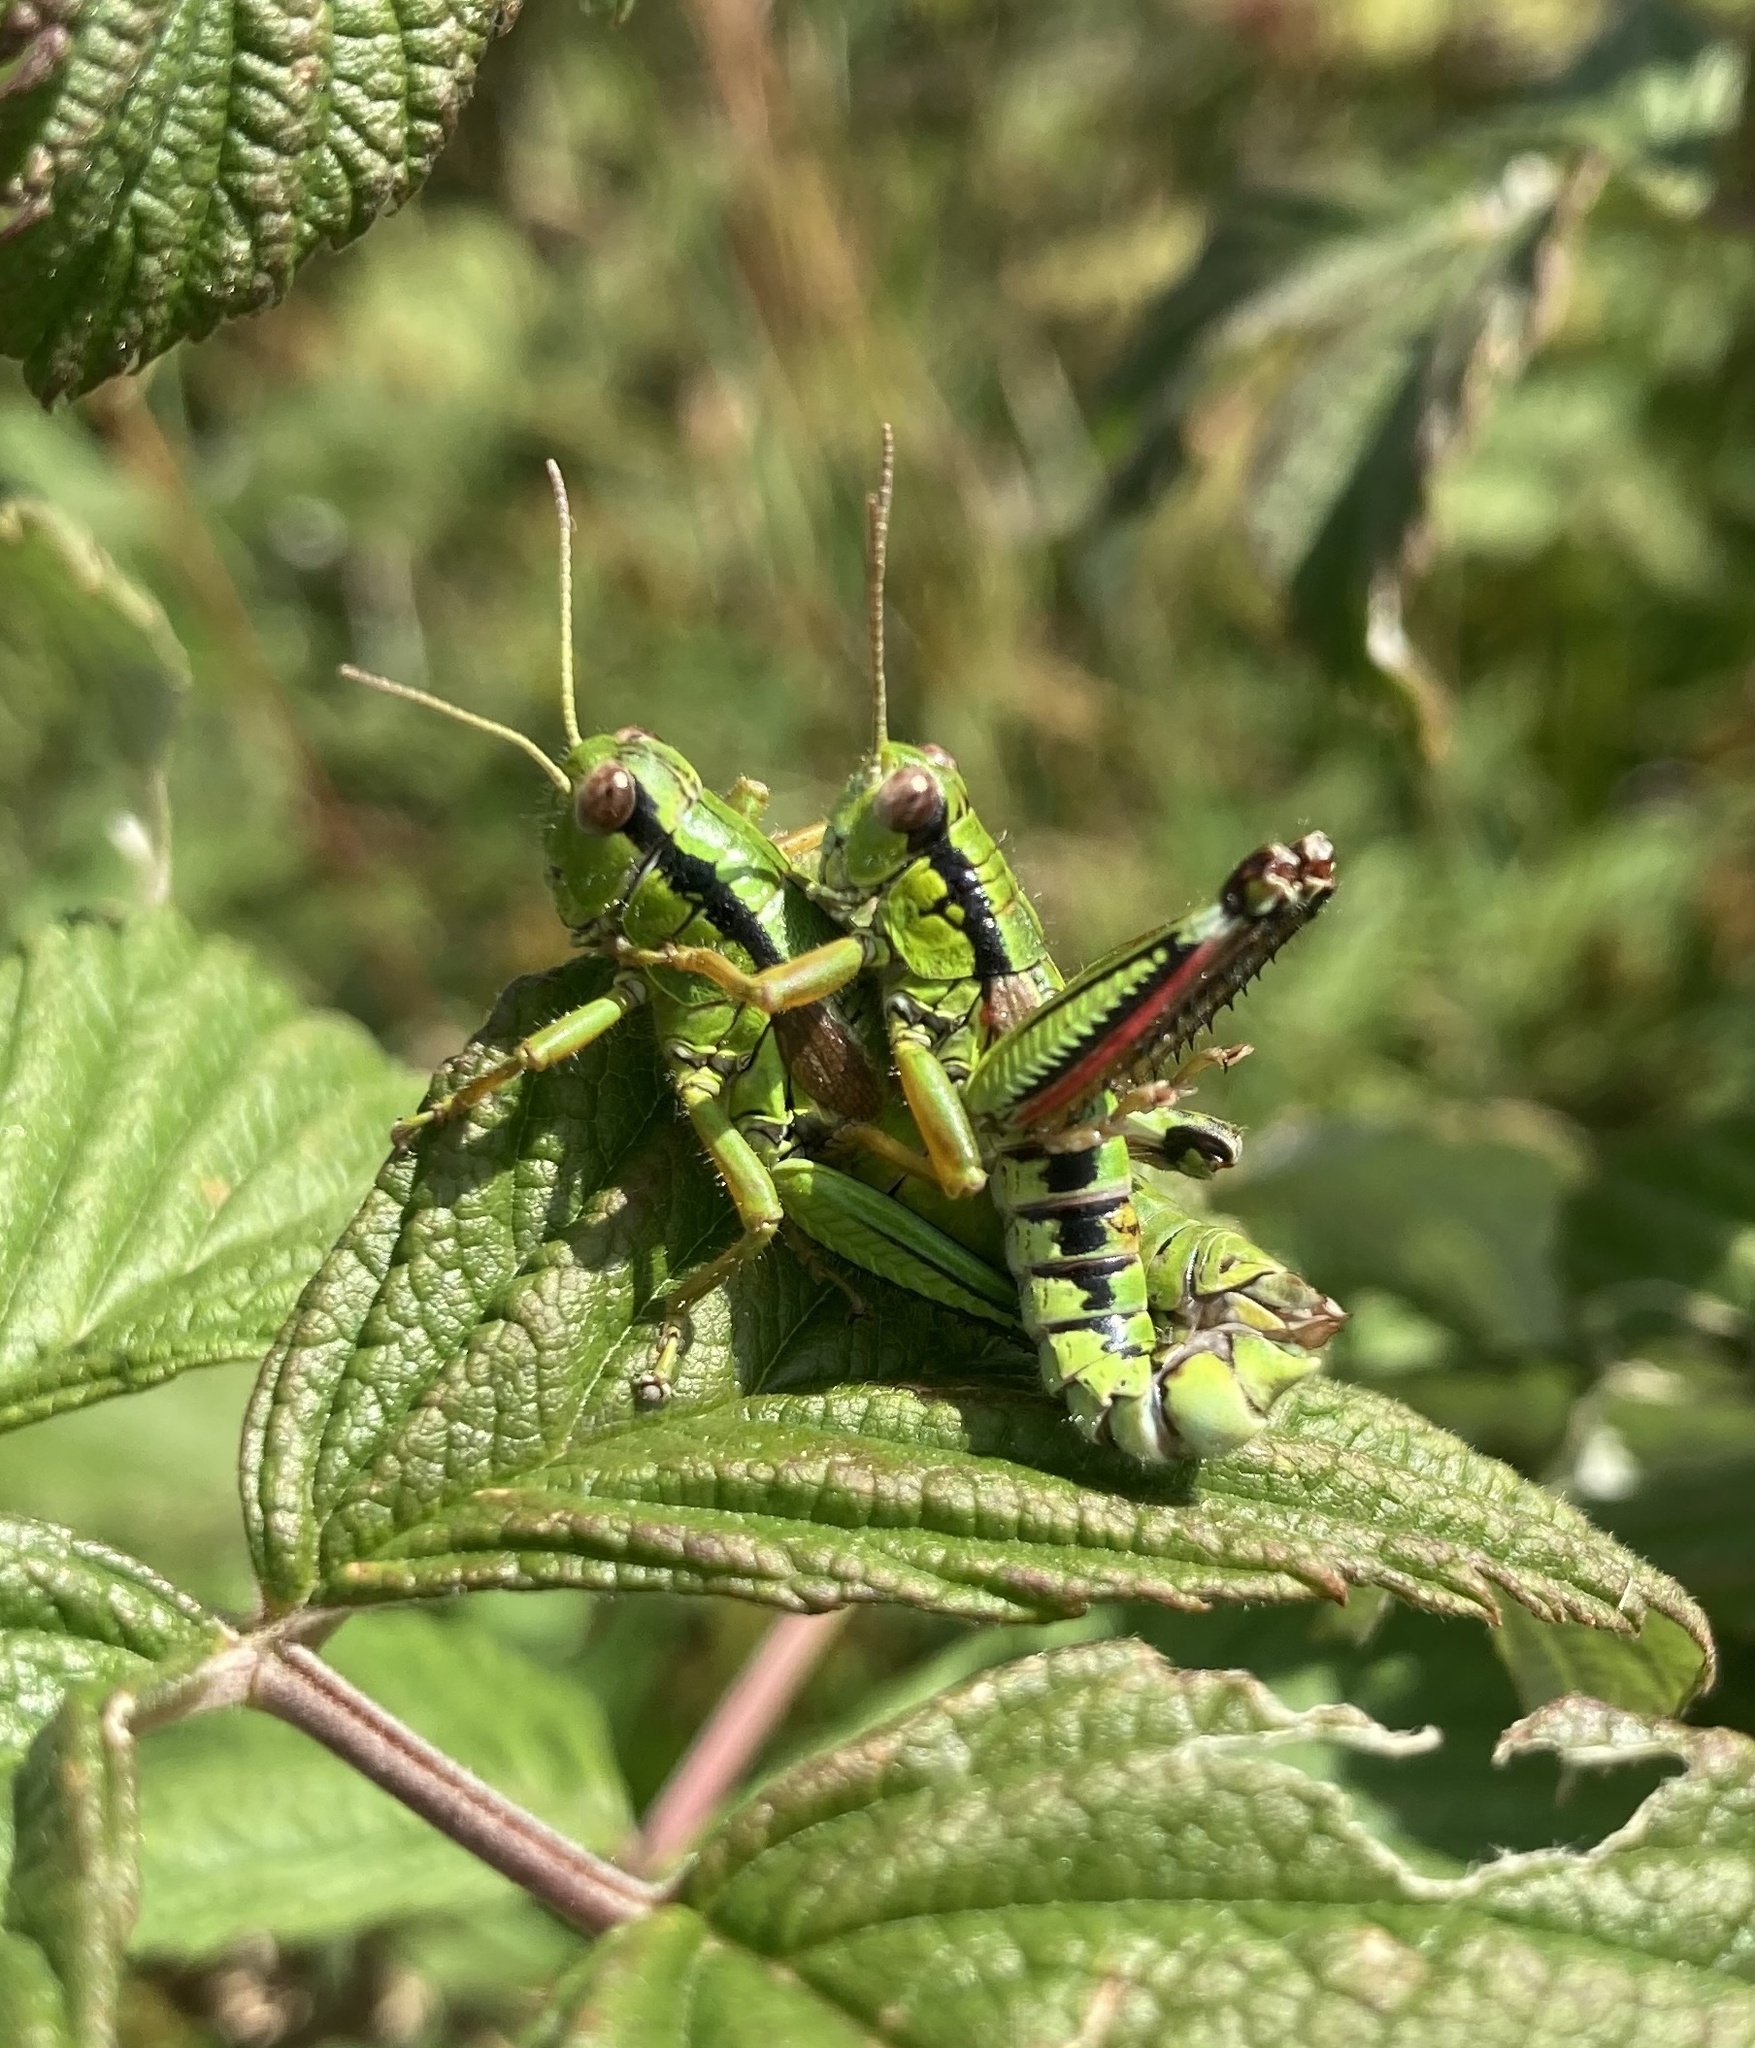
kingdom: Animalia
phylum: Arthropoda
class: Insecta
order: Orthoptera
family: Acrididae
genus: Miramella
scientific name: Miramella alpina
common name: Green mountain grasshopper
